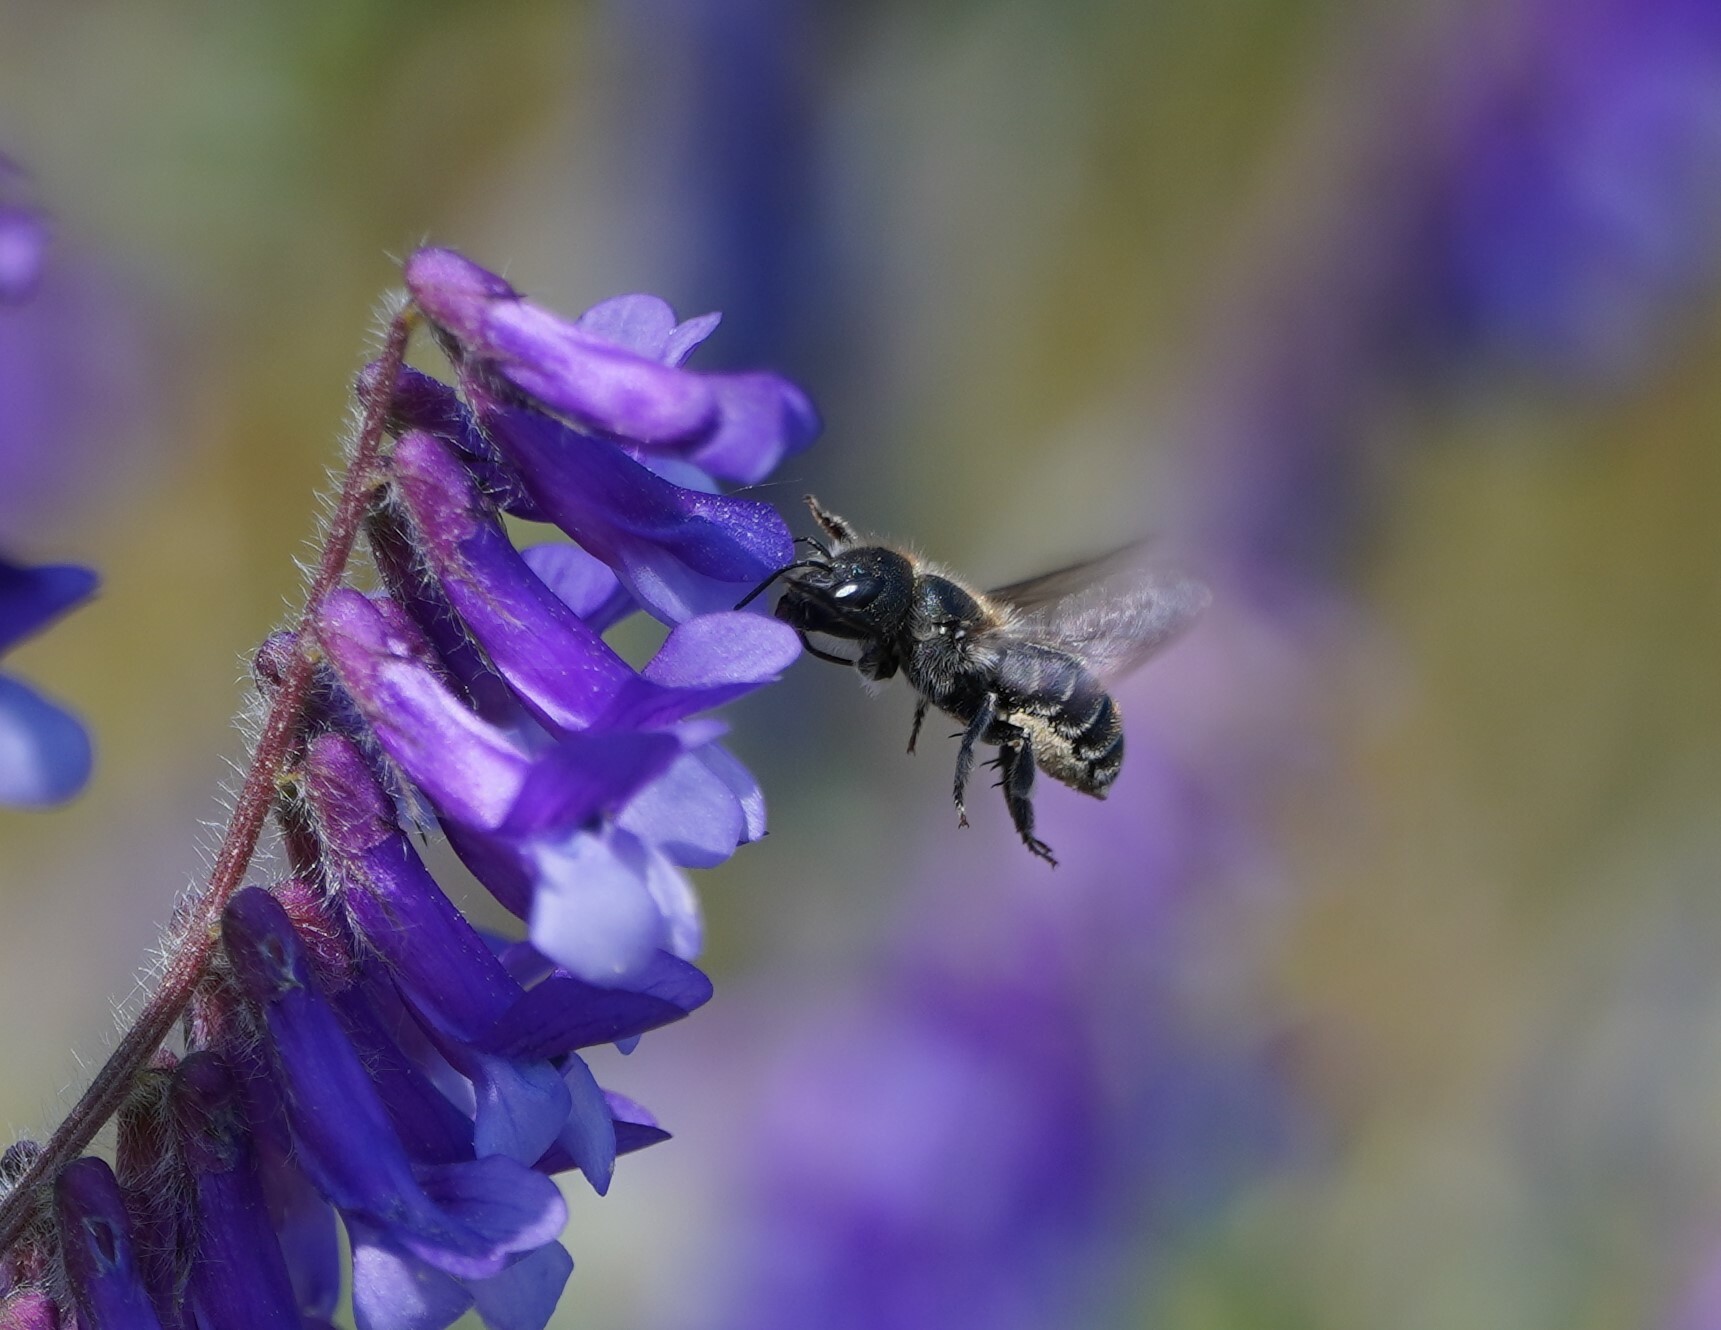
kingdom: Animalia
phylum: Arthropoda
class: Insecta
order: Hymenoptera
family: Megachilidae
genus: Osmia
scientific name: Osmia caerulescens
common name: Blue mason bee
